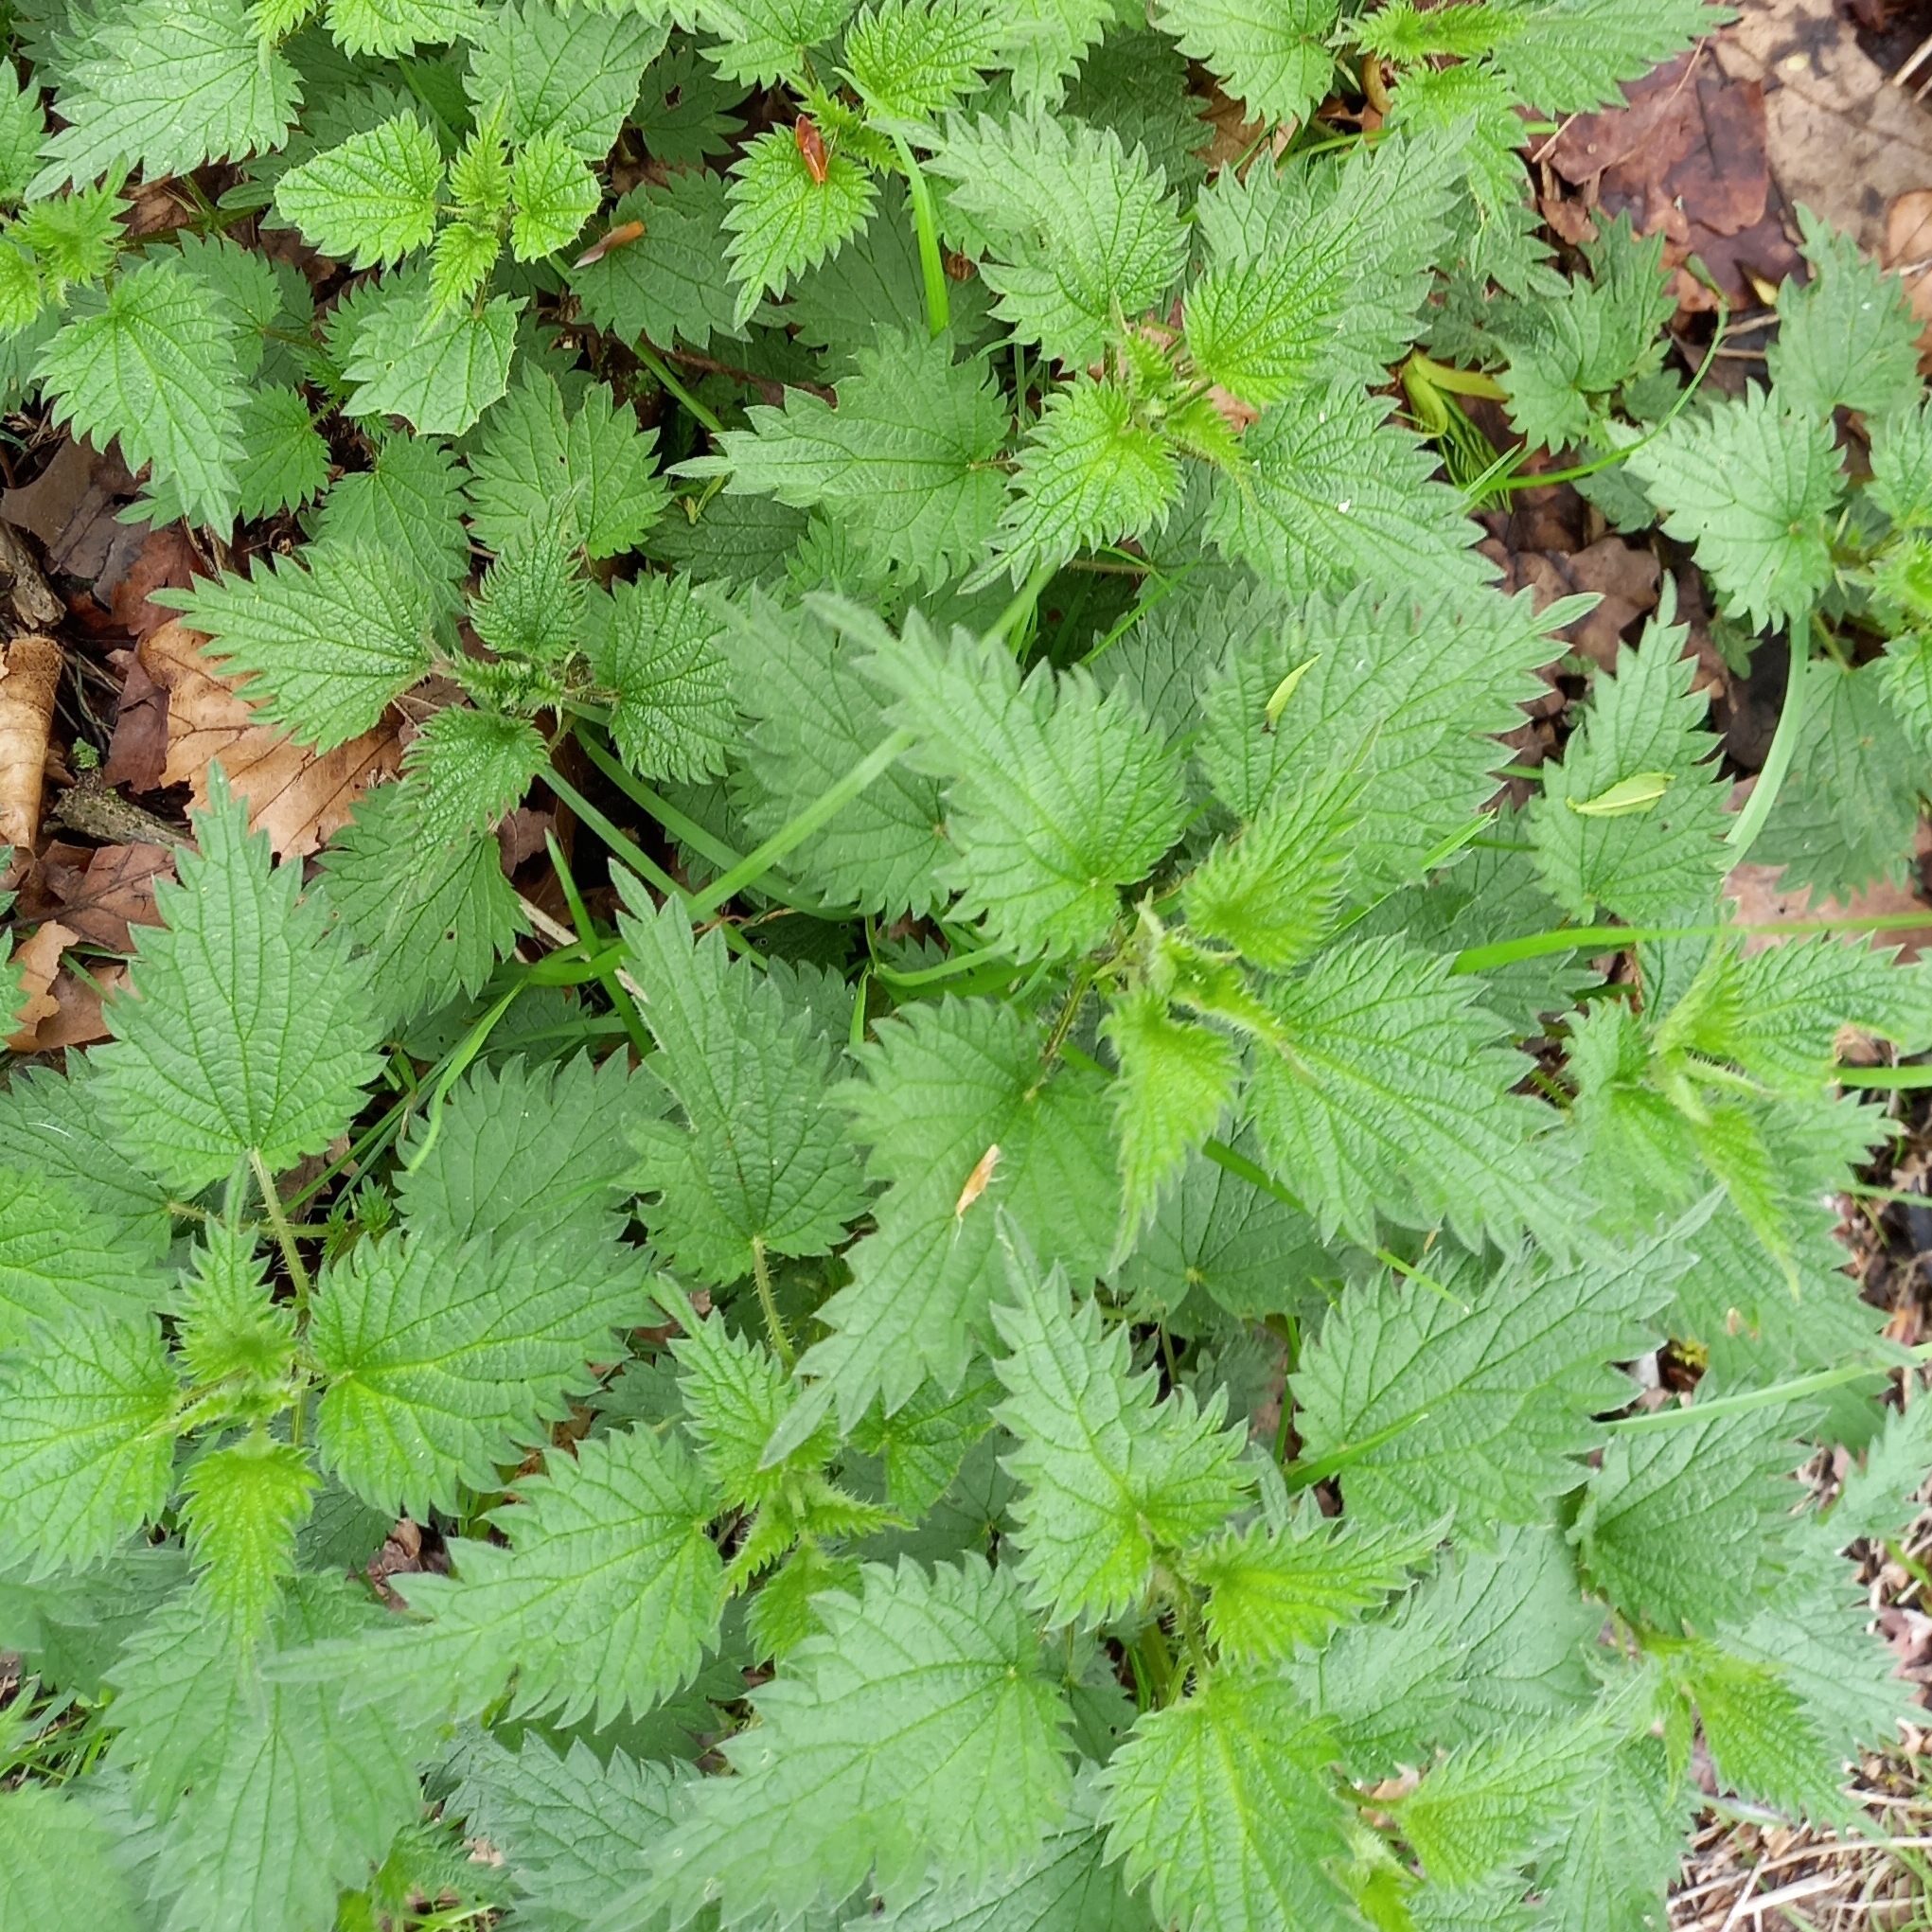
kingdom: Plantae
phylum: Tracheophyta
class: Magnoliopsida
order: Rosales
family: Urticaceae
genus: Urtica
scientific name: Urtica dioica
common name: Common nettle
